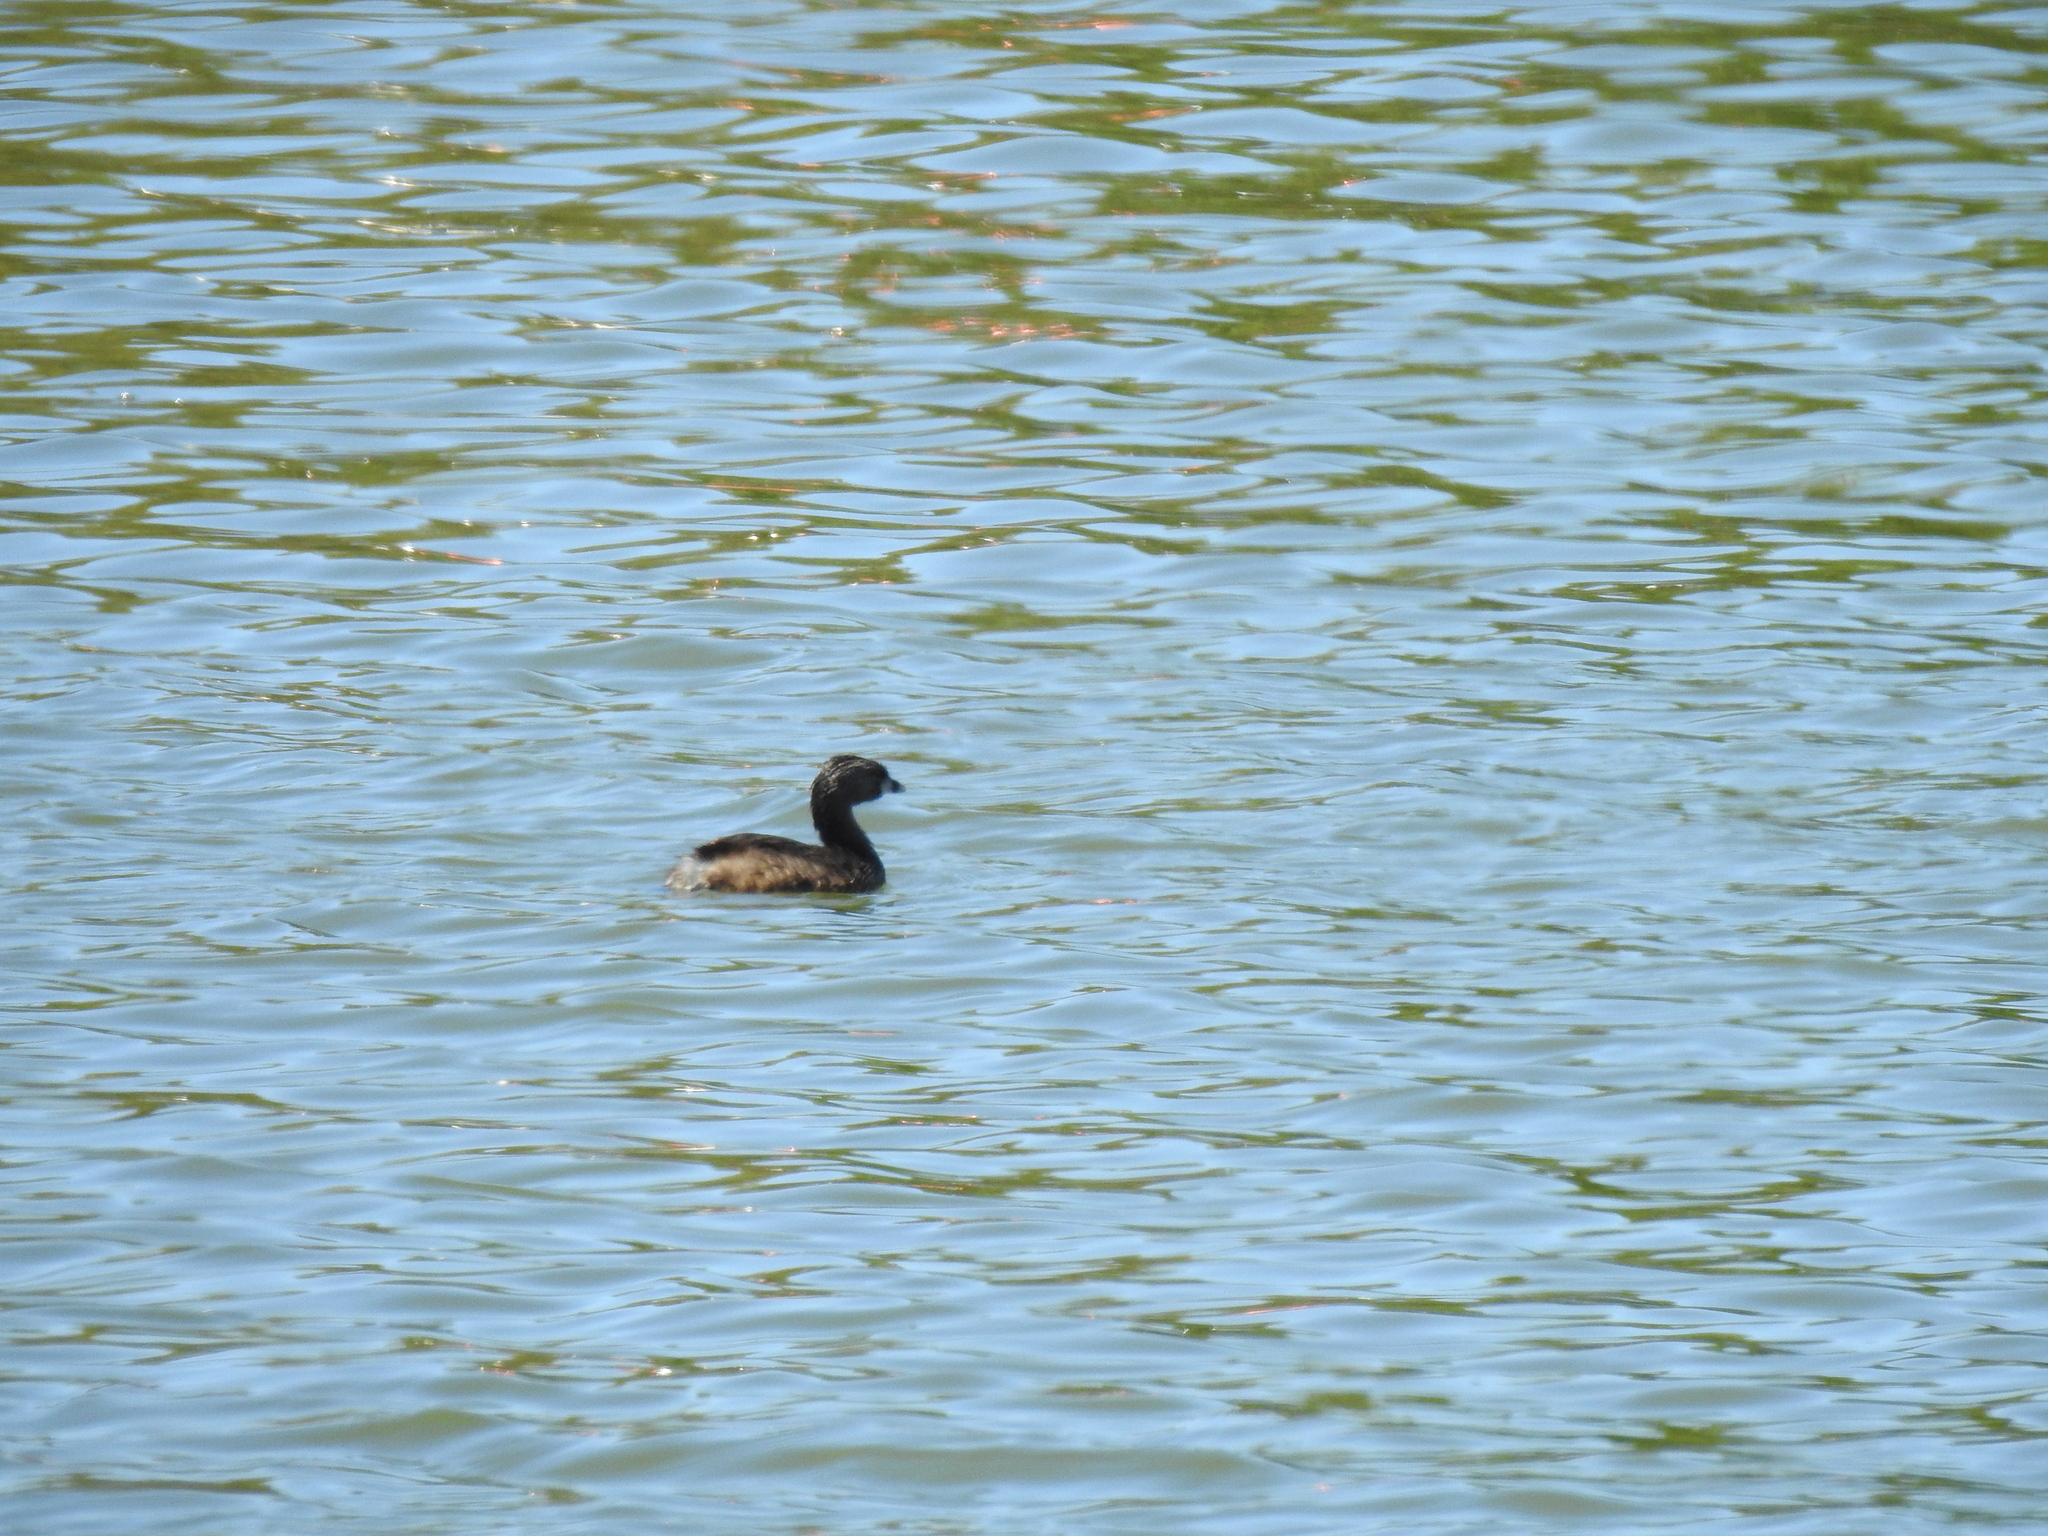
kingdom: Animalia
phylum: Chordata
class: Aves
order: Podicipediformes
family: Podicipedidae
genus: Podilymbus
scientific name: Podilymbus podiceps
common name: Pied-billed grebe
